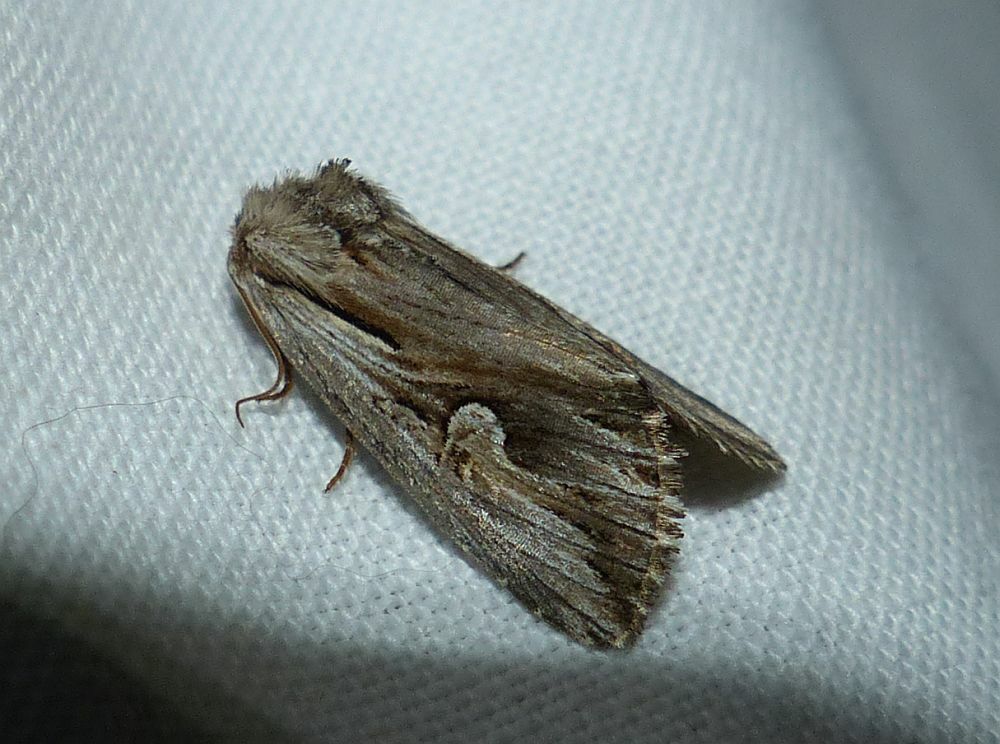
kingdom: Animalia
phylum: Arthropoda
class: Insecta
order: Lepidoptera
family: Noctuidae
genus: Nedra
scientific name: Nedra ramosula
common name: Gray half-spot
